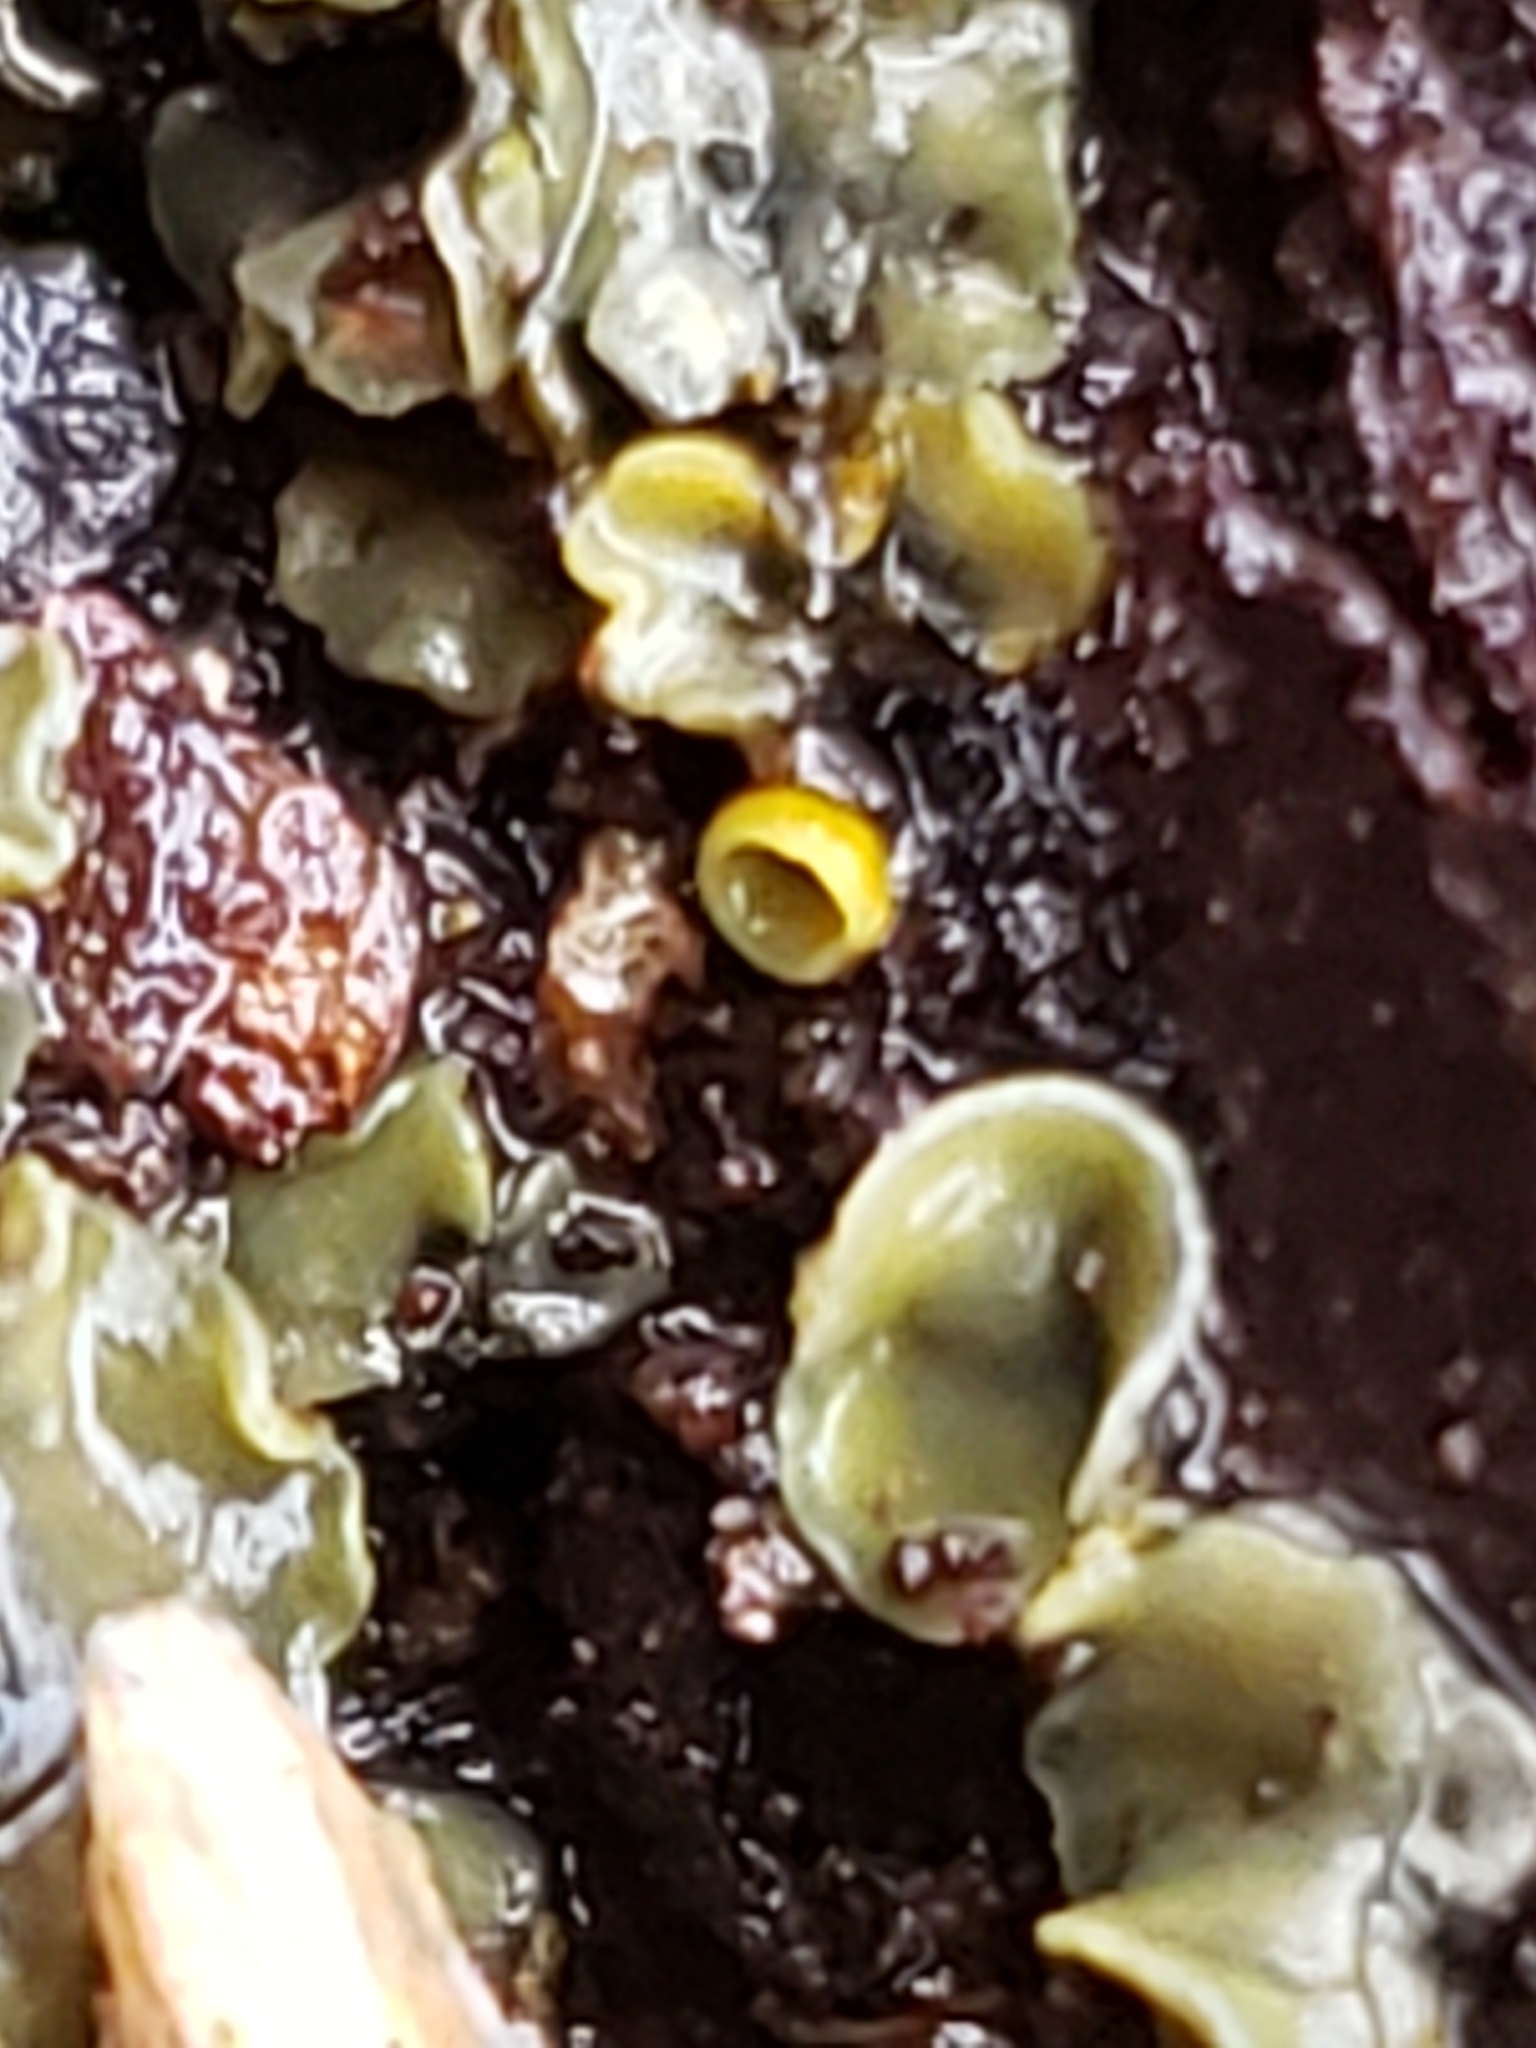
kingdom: Fungi
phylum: Ascomycota
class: Leotiomycetes
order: Helotiales
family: Chlorospleniaceae
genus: Chlorosplenium
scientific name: Chlorosplenium chlora
